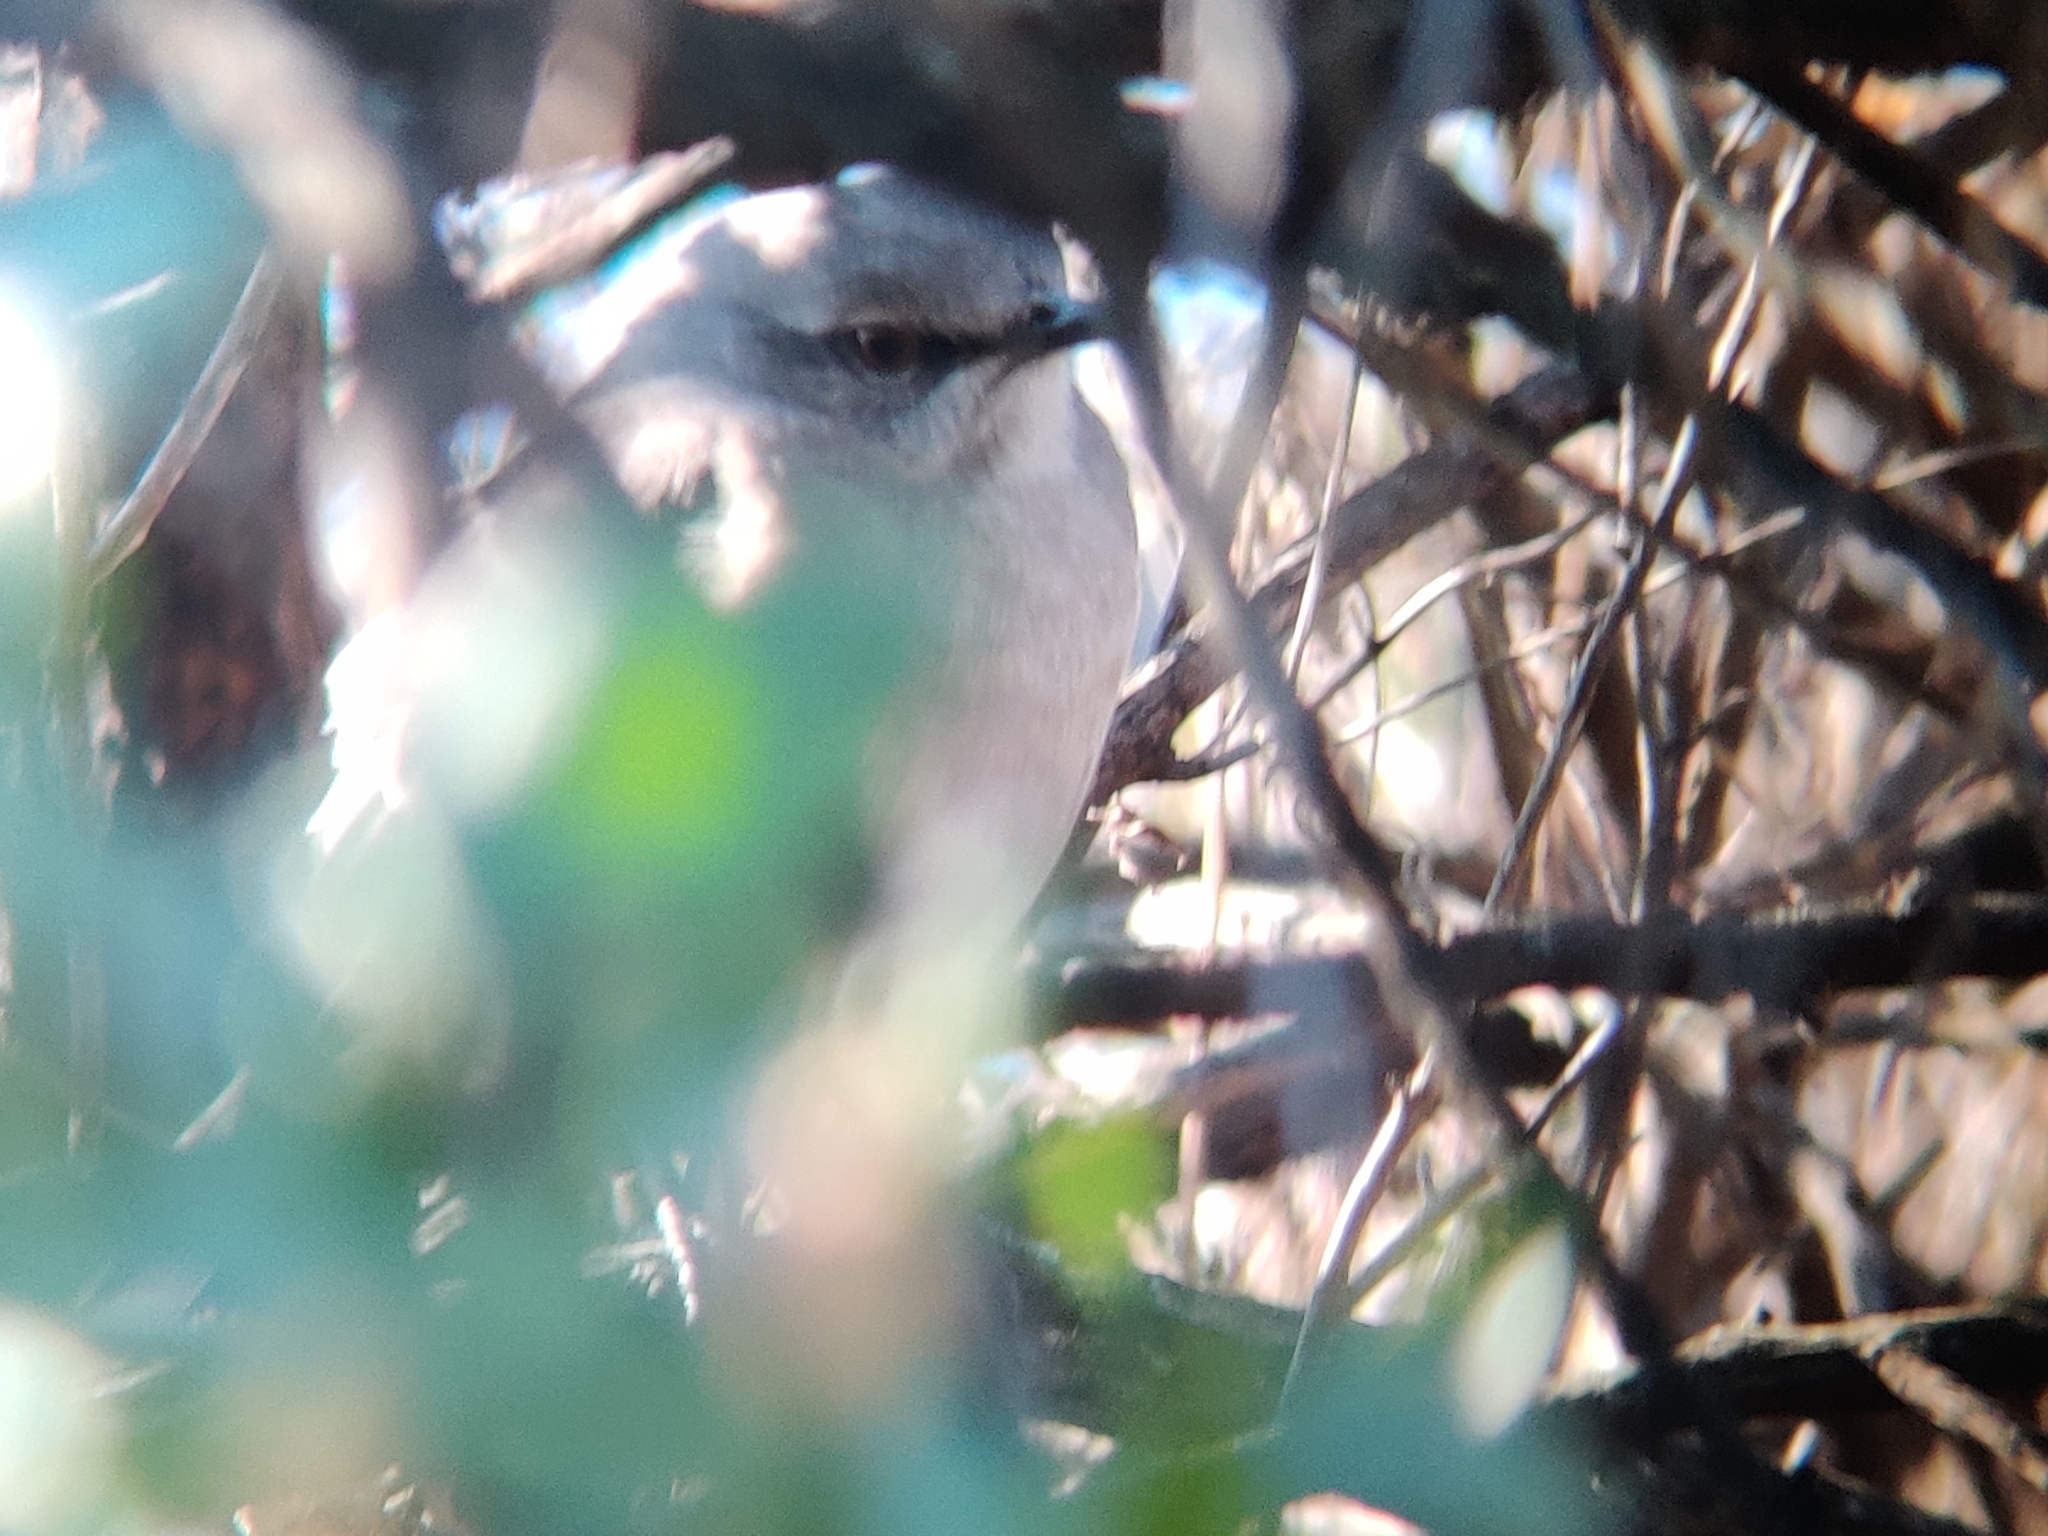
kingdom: Animalia
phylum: Chordata
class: Aves
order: Passeriformes
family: Mimidae
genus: Mimus
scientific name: Mimus polyglottos
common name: Northern mockingbird
